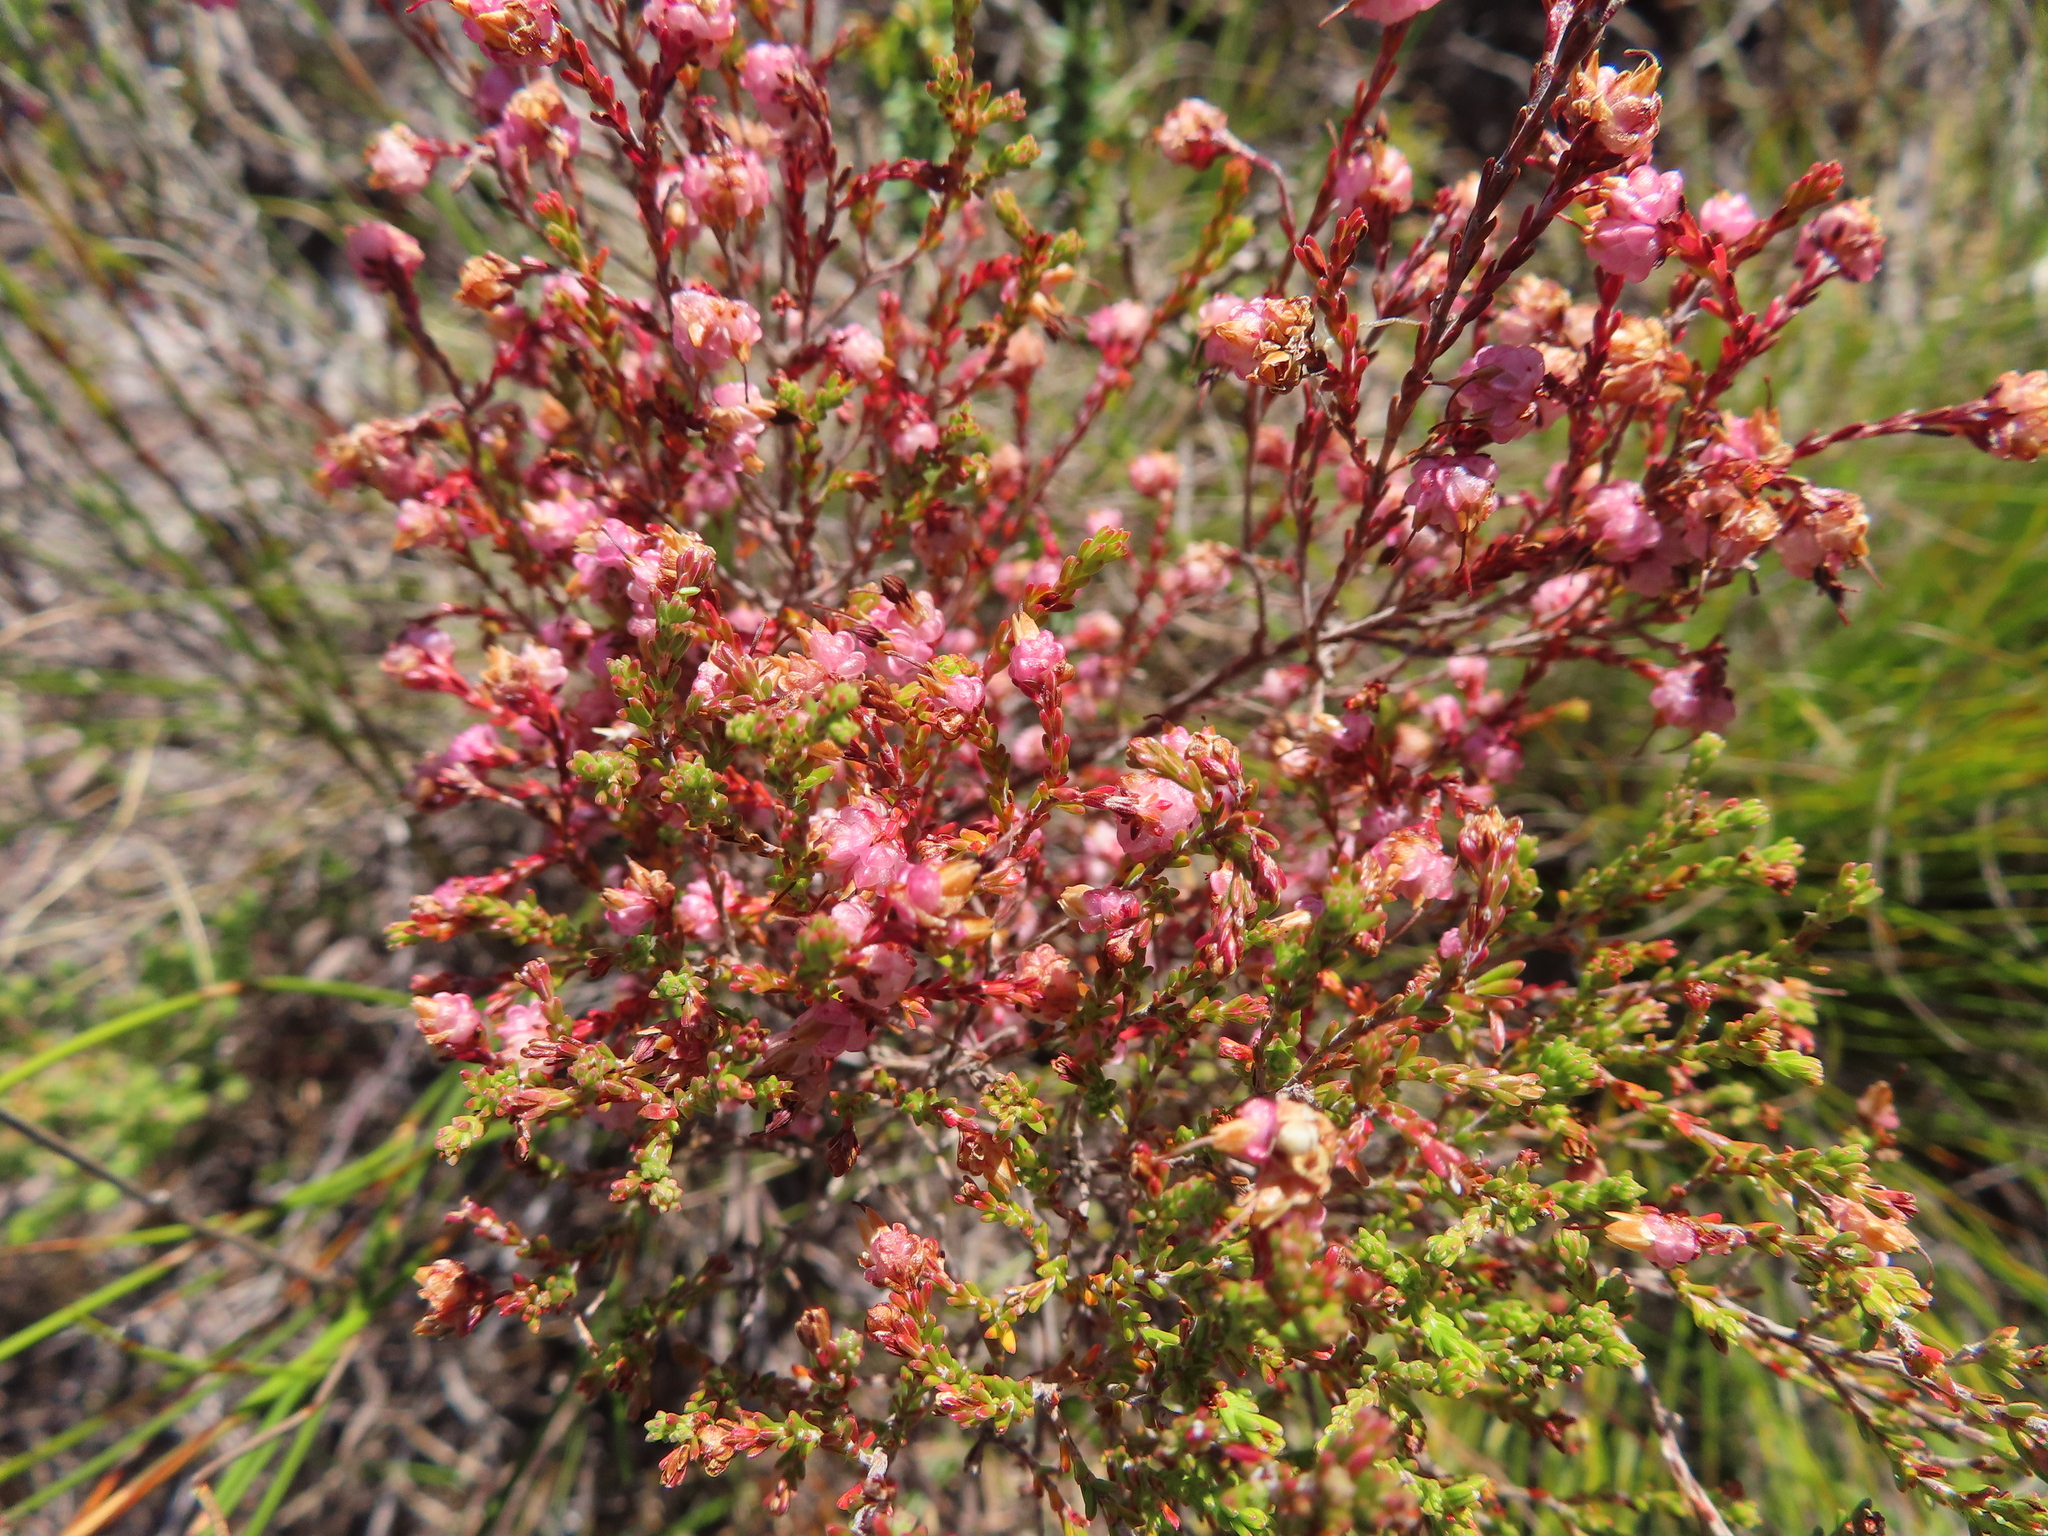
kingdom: Plantae
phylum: Tracheophyta
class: Magnoliopsida
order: Ericales
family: Ericaceae
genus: Erica
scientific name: Erica spumosa
